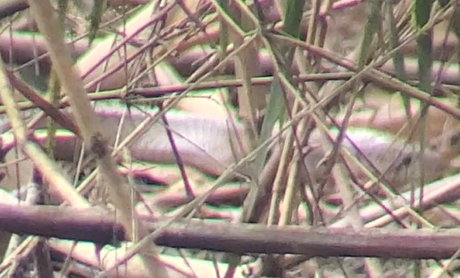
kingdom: Animalia
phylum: Chordata
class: Squamata
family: Colubridae
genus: Drymarchon
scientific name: Drymarchon melanurus
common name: Central american indigo snake
